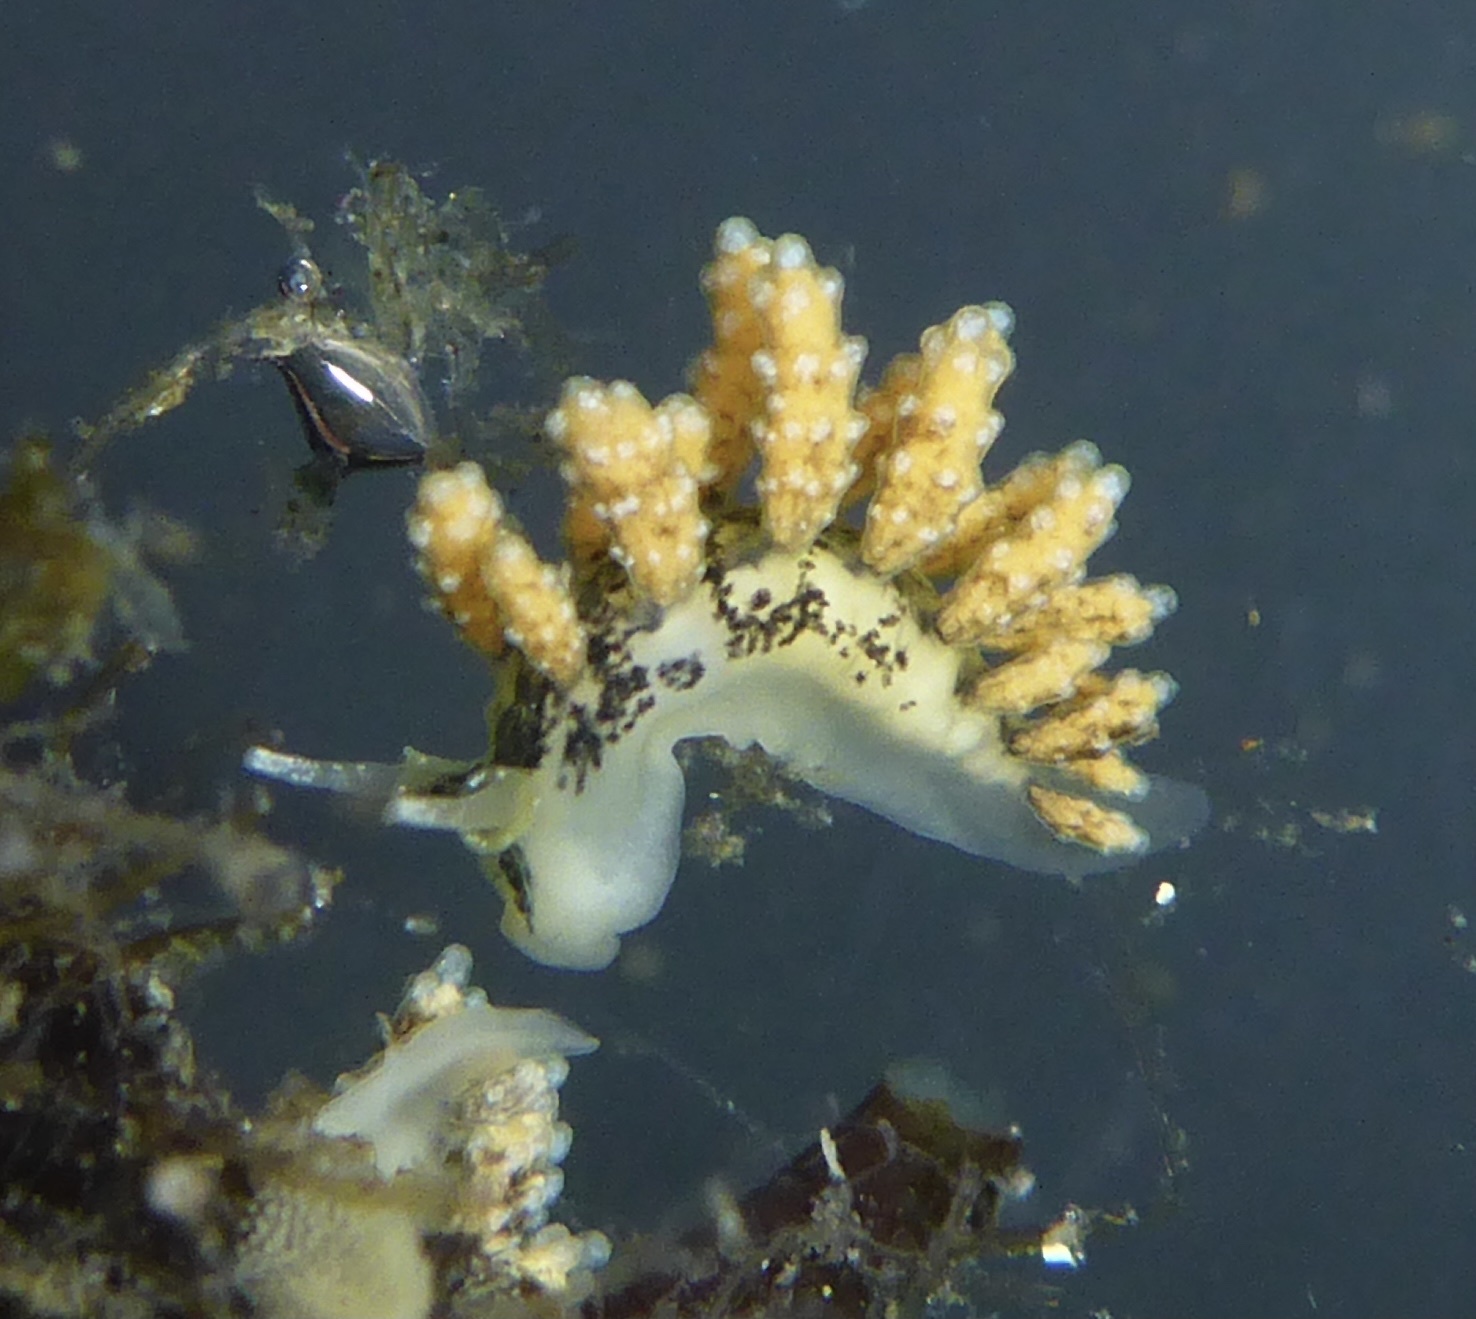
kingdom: Animalia
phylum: Mollusca
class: Gastropoda
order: Nudibranchia
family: Dotidae
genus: Doto
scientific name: Doto kya
